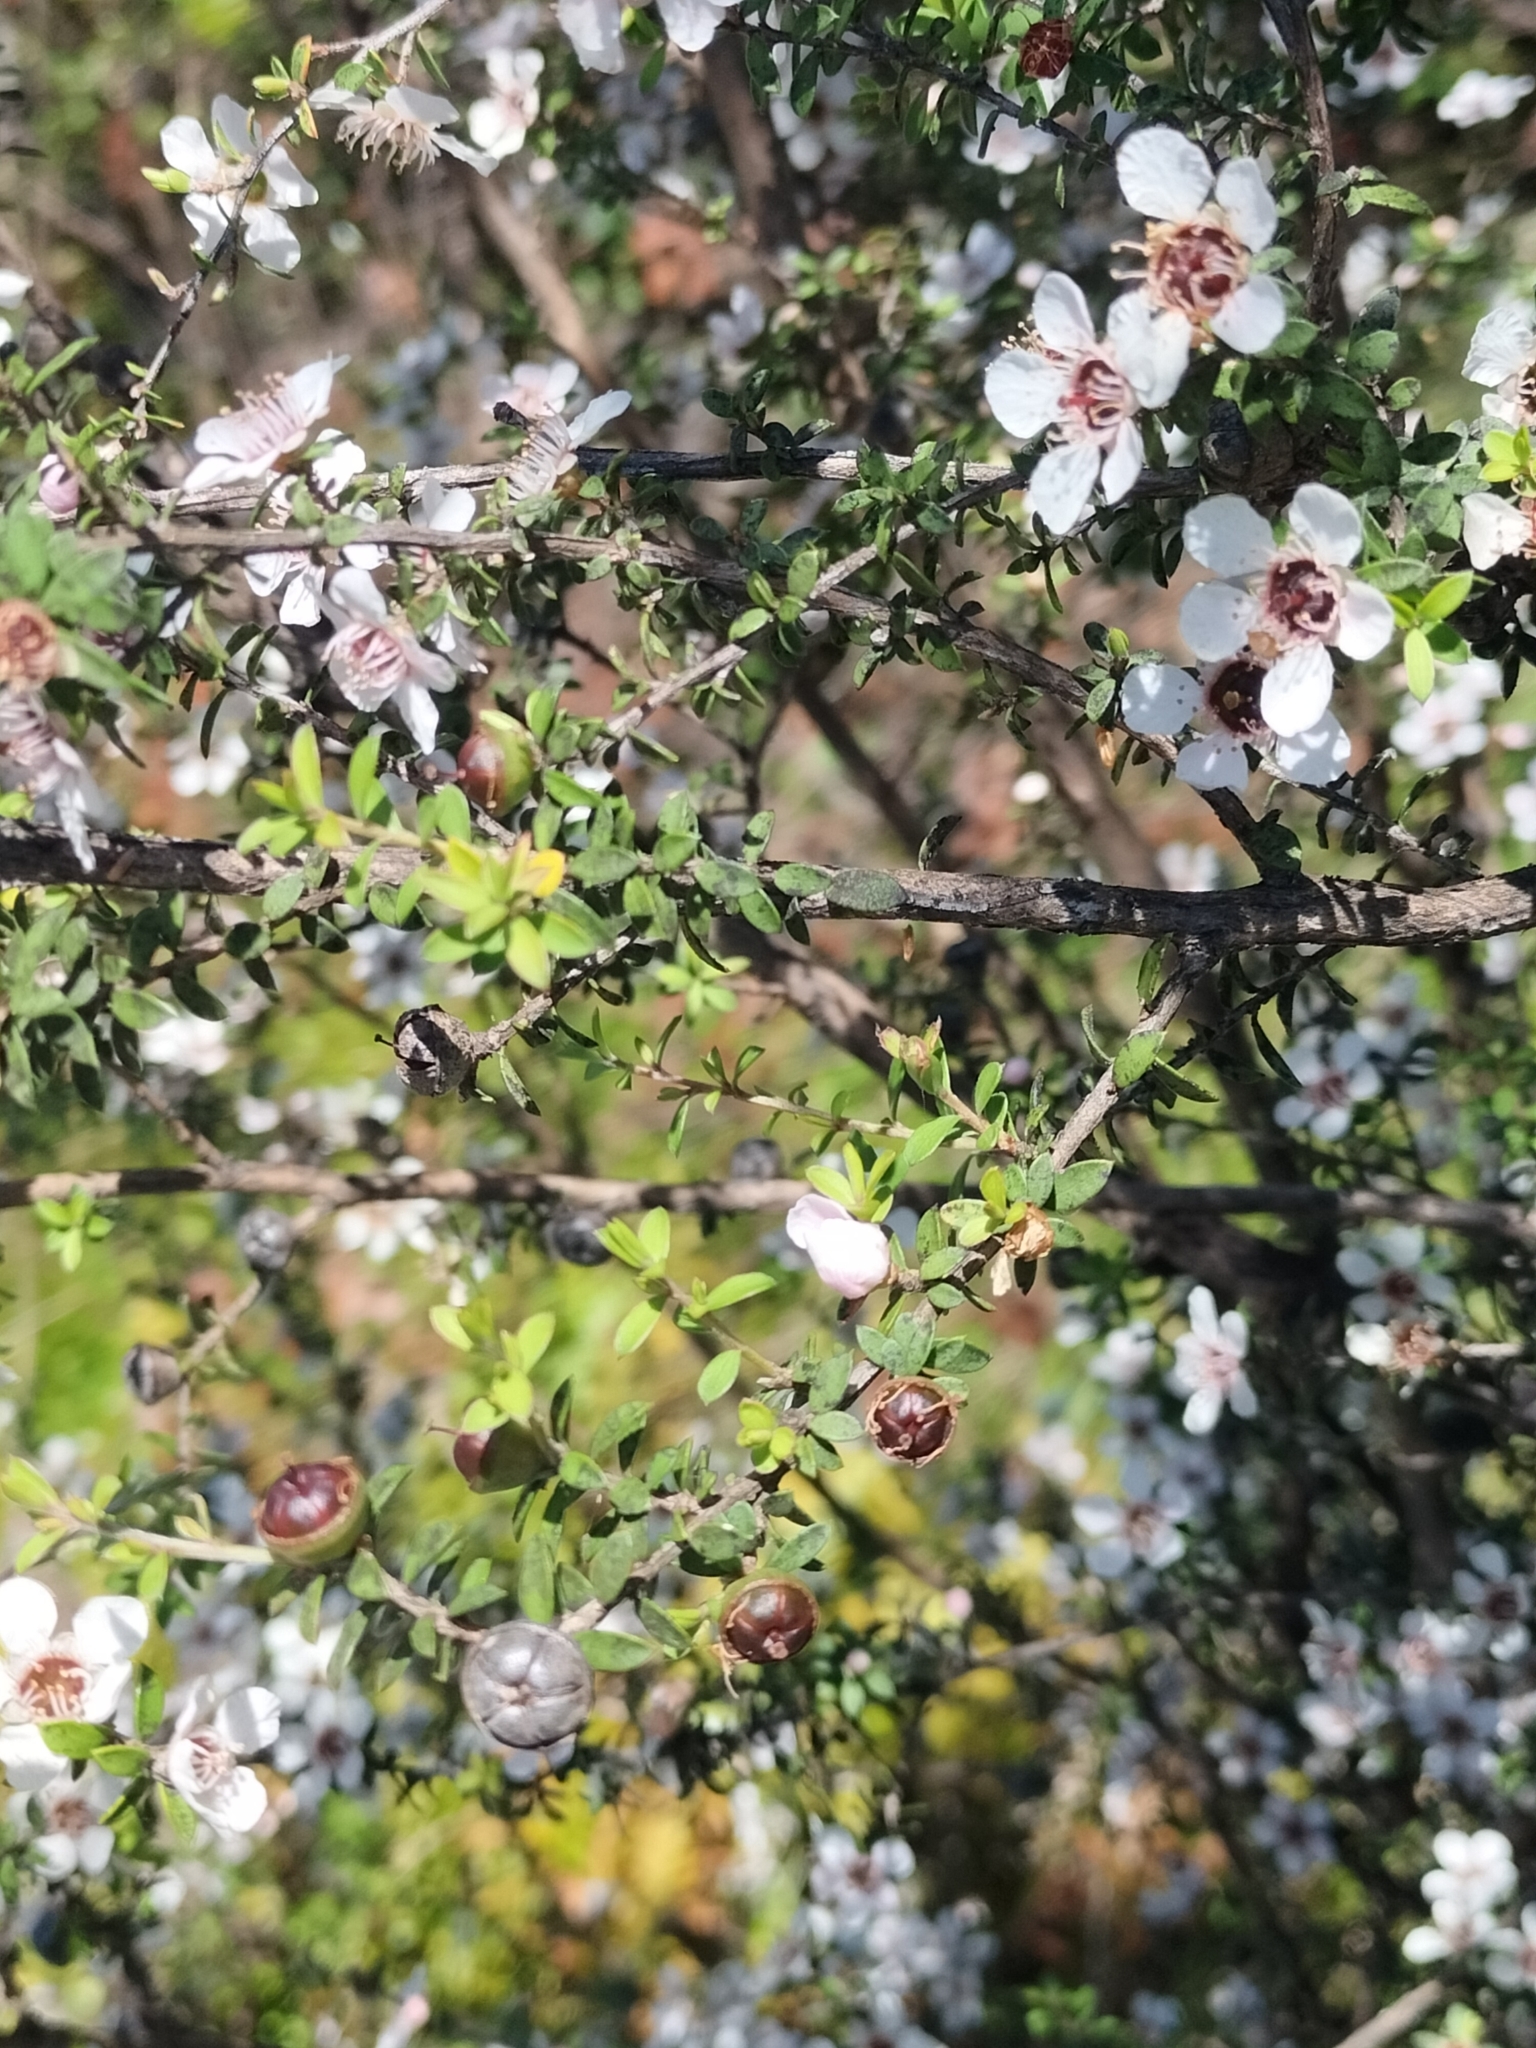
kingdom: Plantae
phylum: Tracheophyta
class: Magnoliopsida
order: Myrtales
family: Myrtaceae
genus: Leptospermum
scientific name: Leptospermum scoparium
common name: Broom tea-tree
